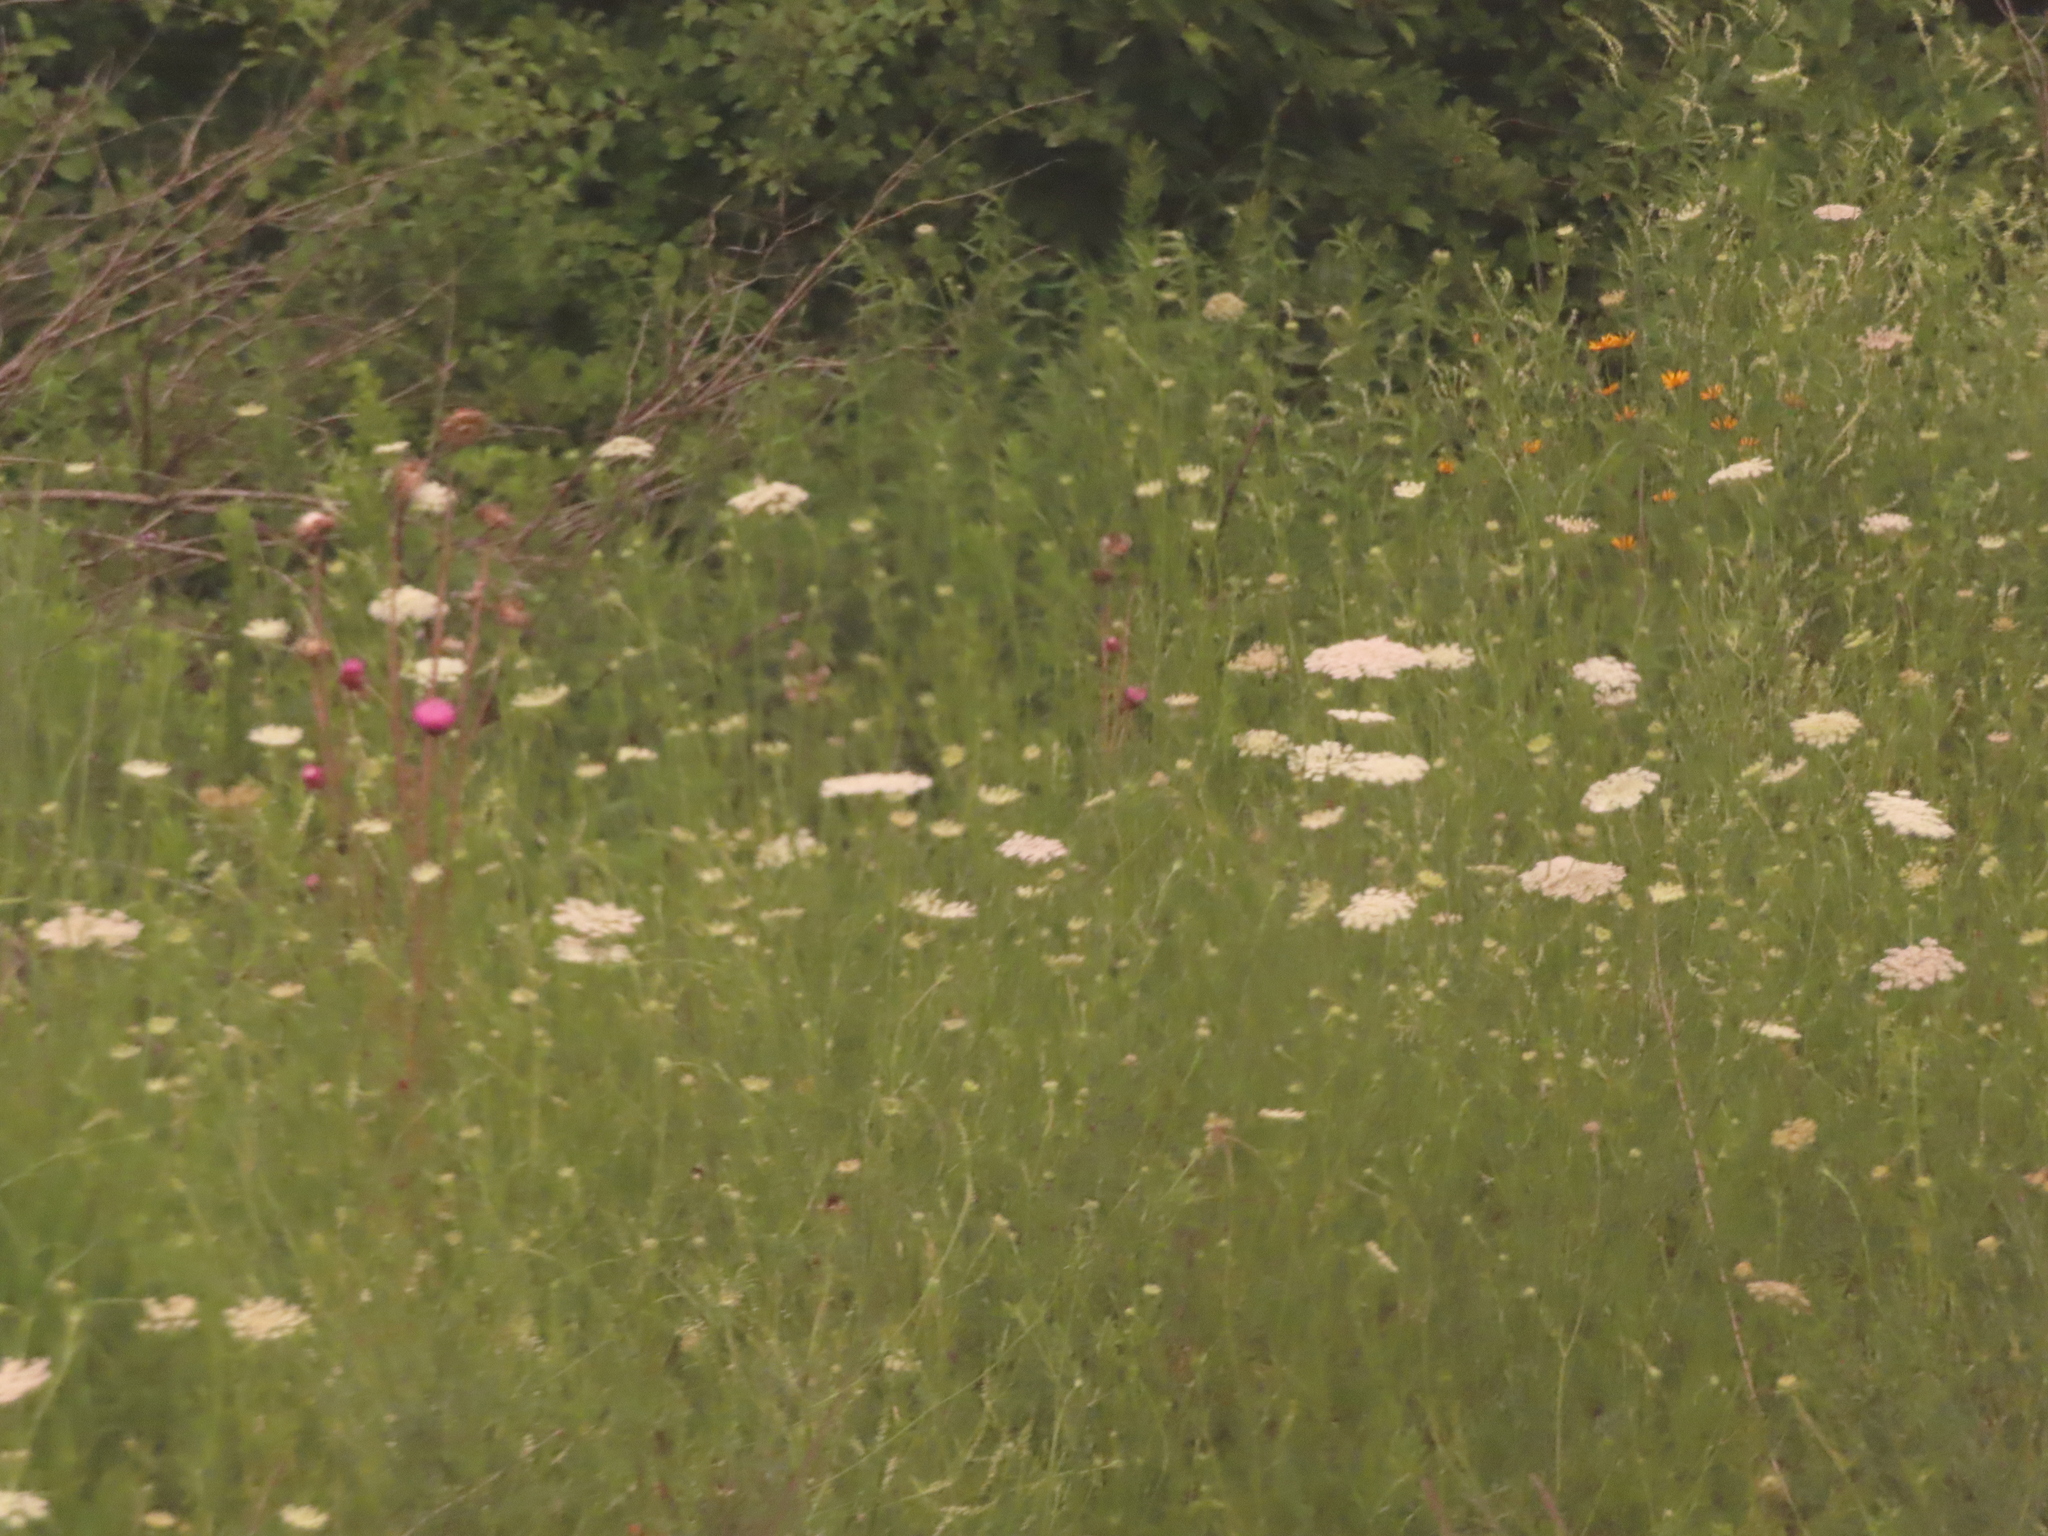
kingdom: Plantae
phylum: Tracheophyta
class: Magnoliopsida
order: Apiales
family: Apiaceae
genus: Daucus
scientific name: Daucus carota
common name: Wild carrot
